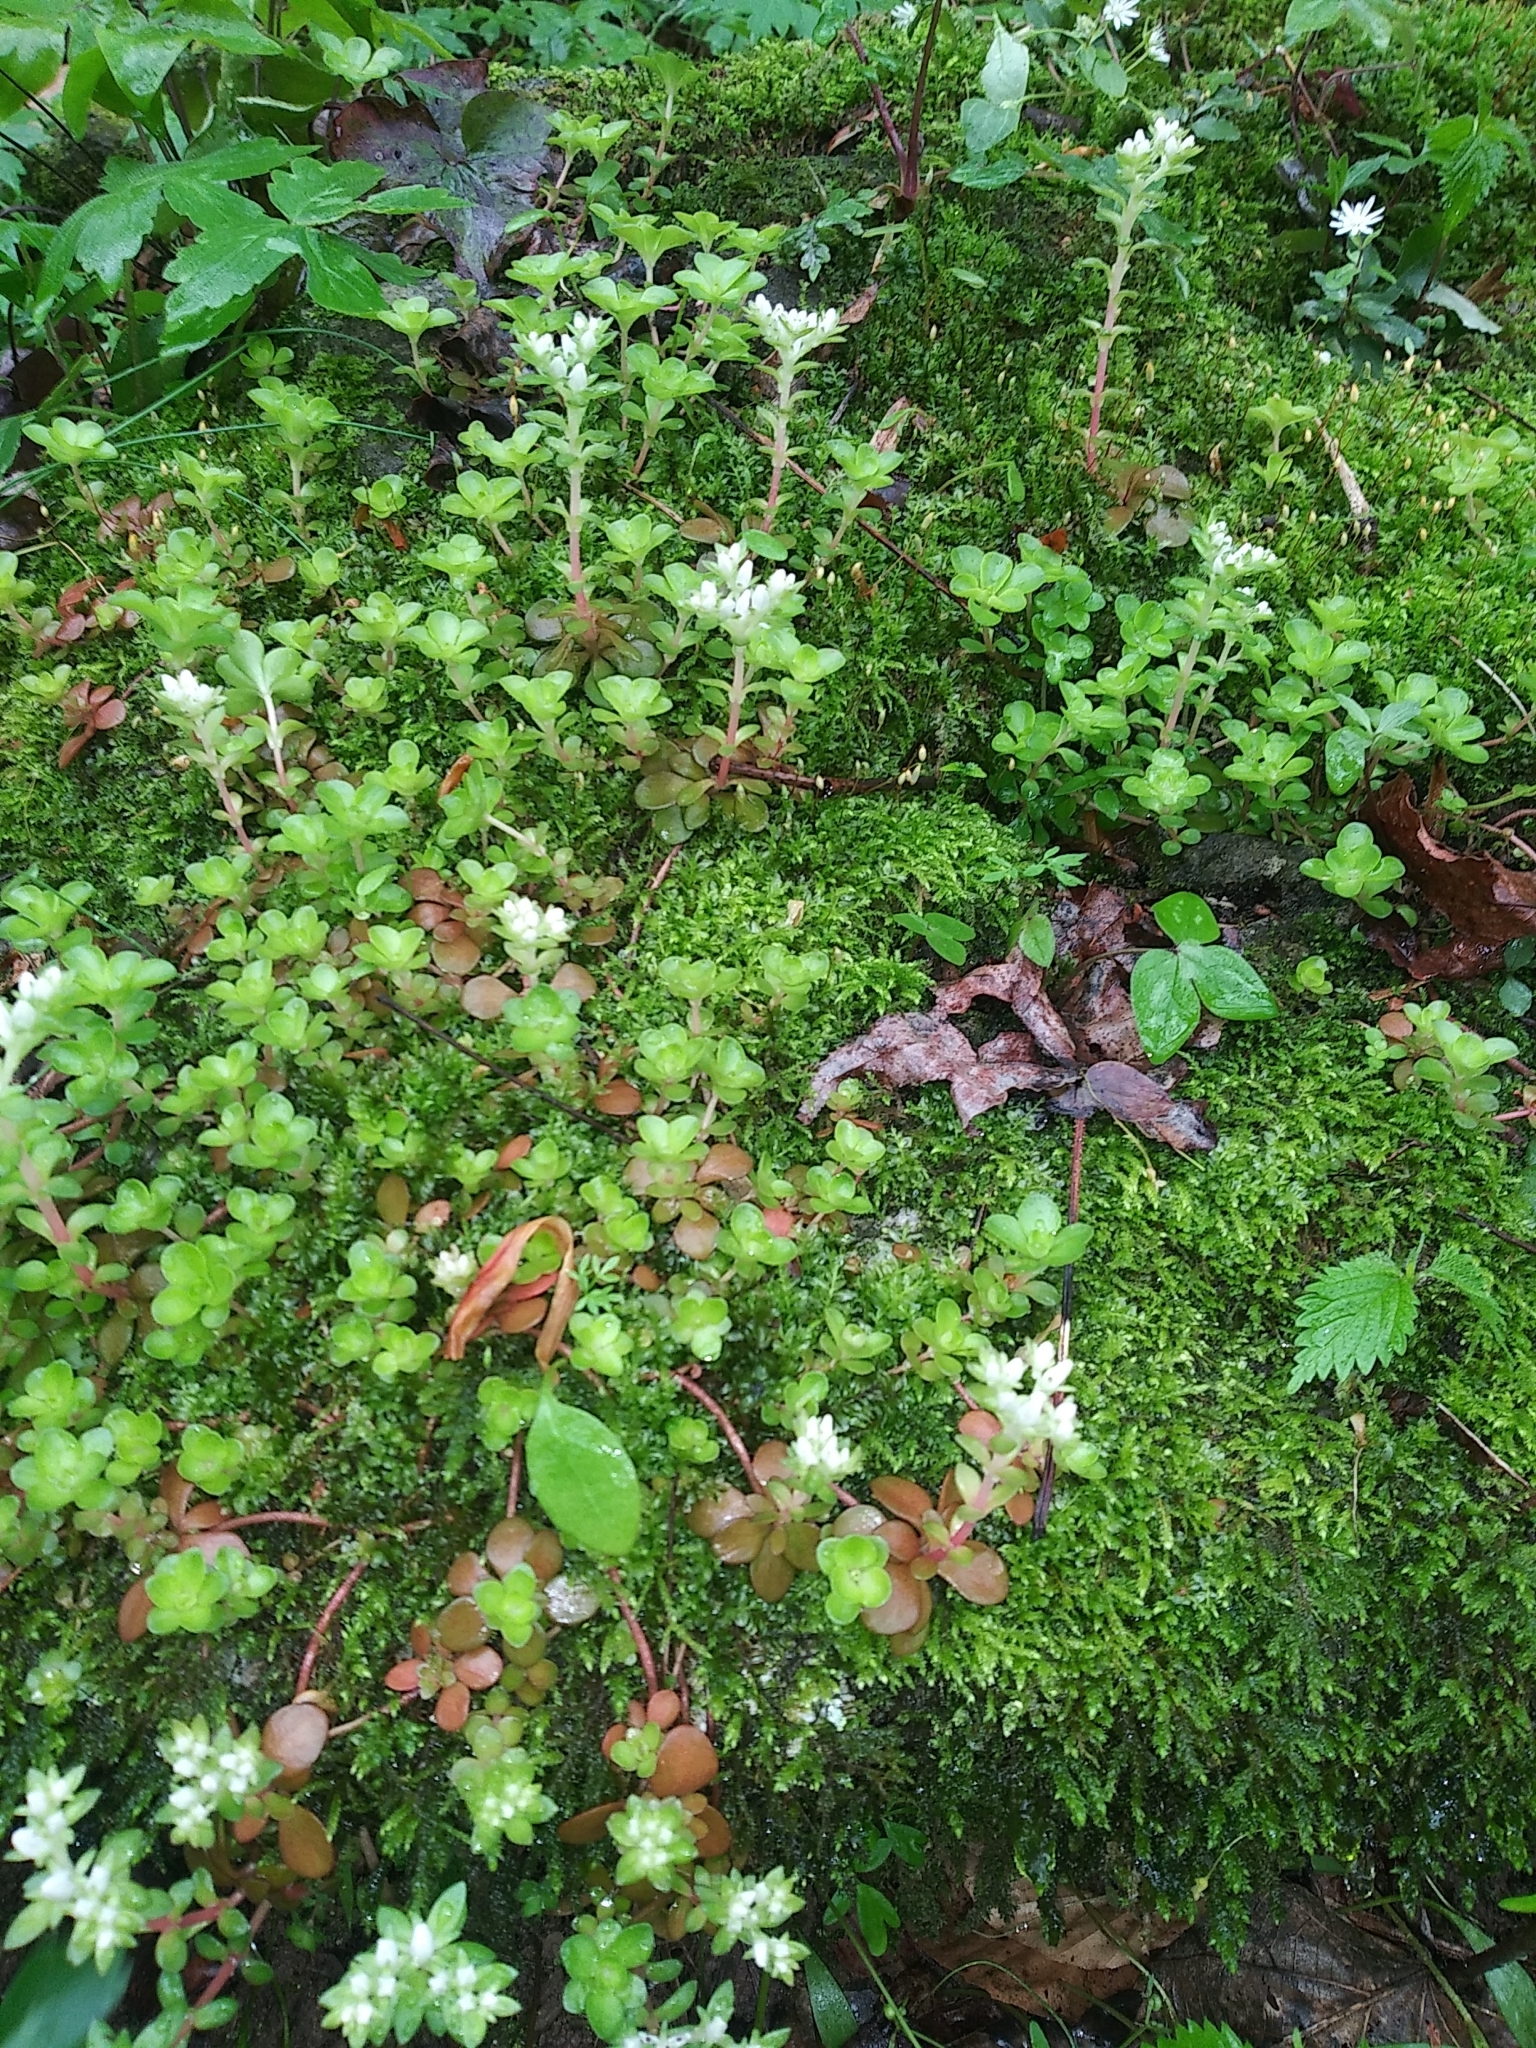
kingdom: Plantae
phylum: Tracheophyta
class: Magnoliopsida
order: Saxifragales
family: Crassulaceae
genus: Sedum
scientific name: Sedum ternatum
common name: Wild stonecrop
